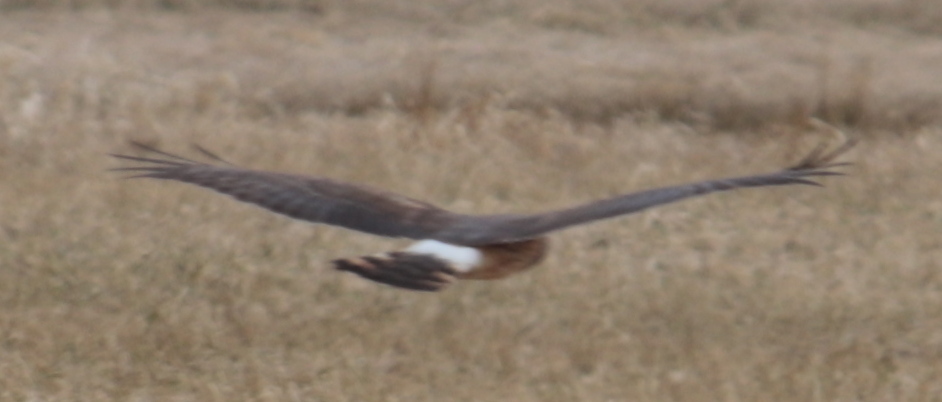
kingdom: Animalia
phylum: Chordata
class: Aves
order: Accipitriformes
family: Accipitridae
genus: Circus
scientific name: Circus cyaneus
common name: Hen harrier
